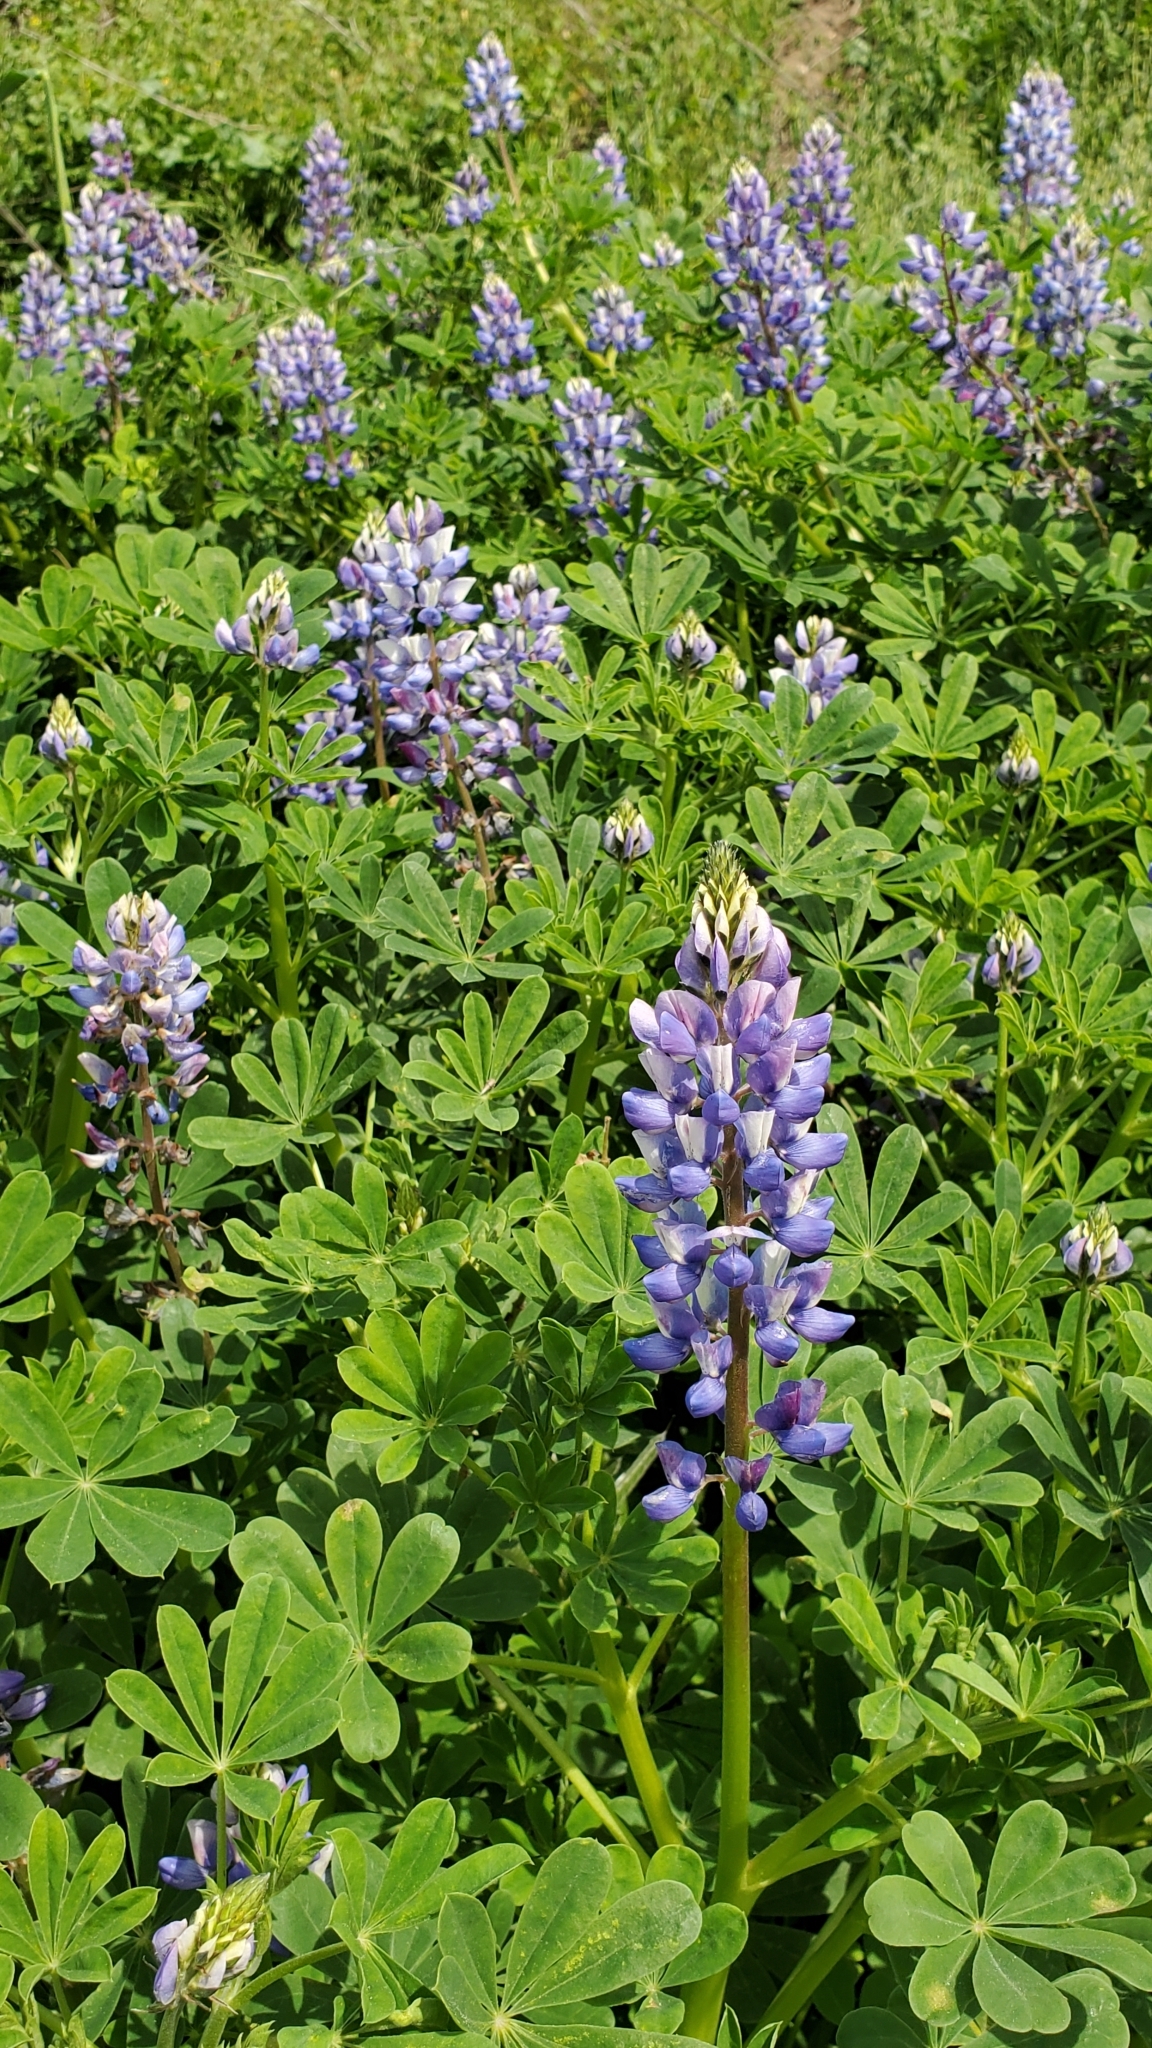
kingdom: Plantae
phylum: Tracheophyta
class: Magnoliopsida
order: Fabales
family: Fabaceae
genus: Lupinus
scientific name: Lupinus succulentus
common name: Arroyo lupine
